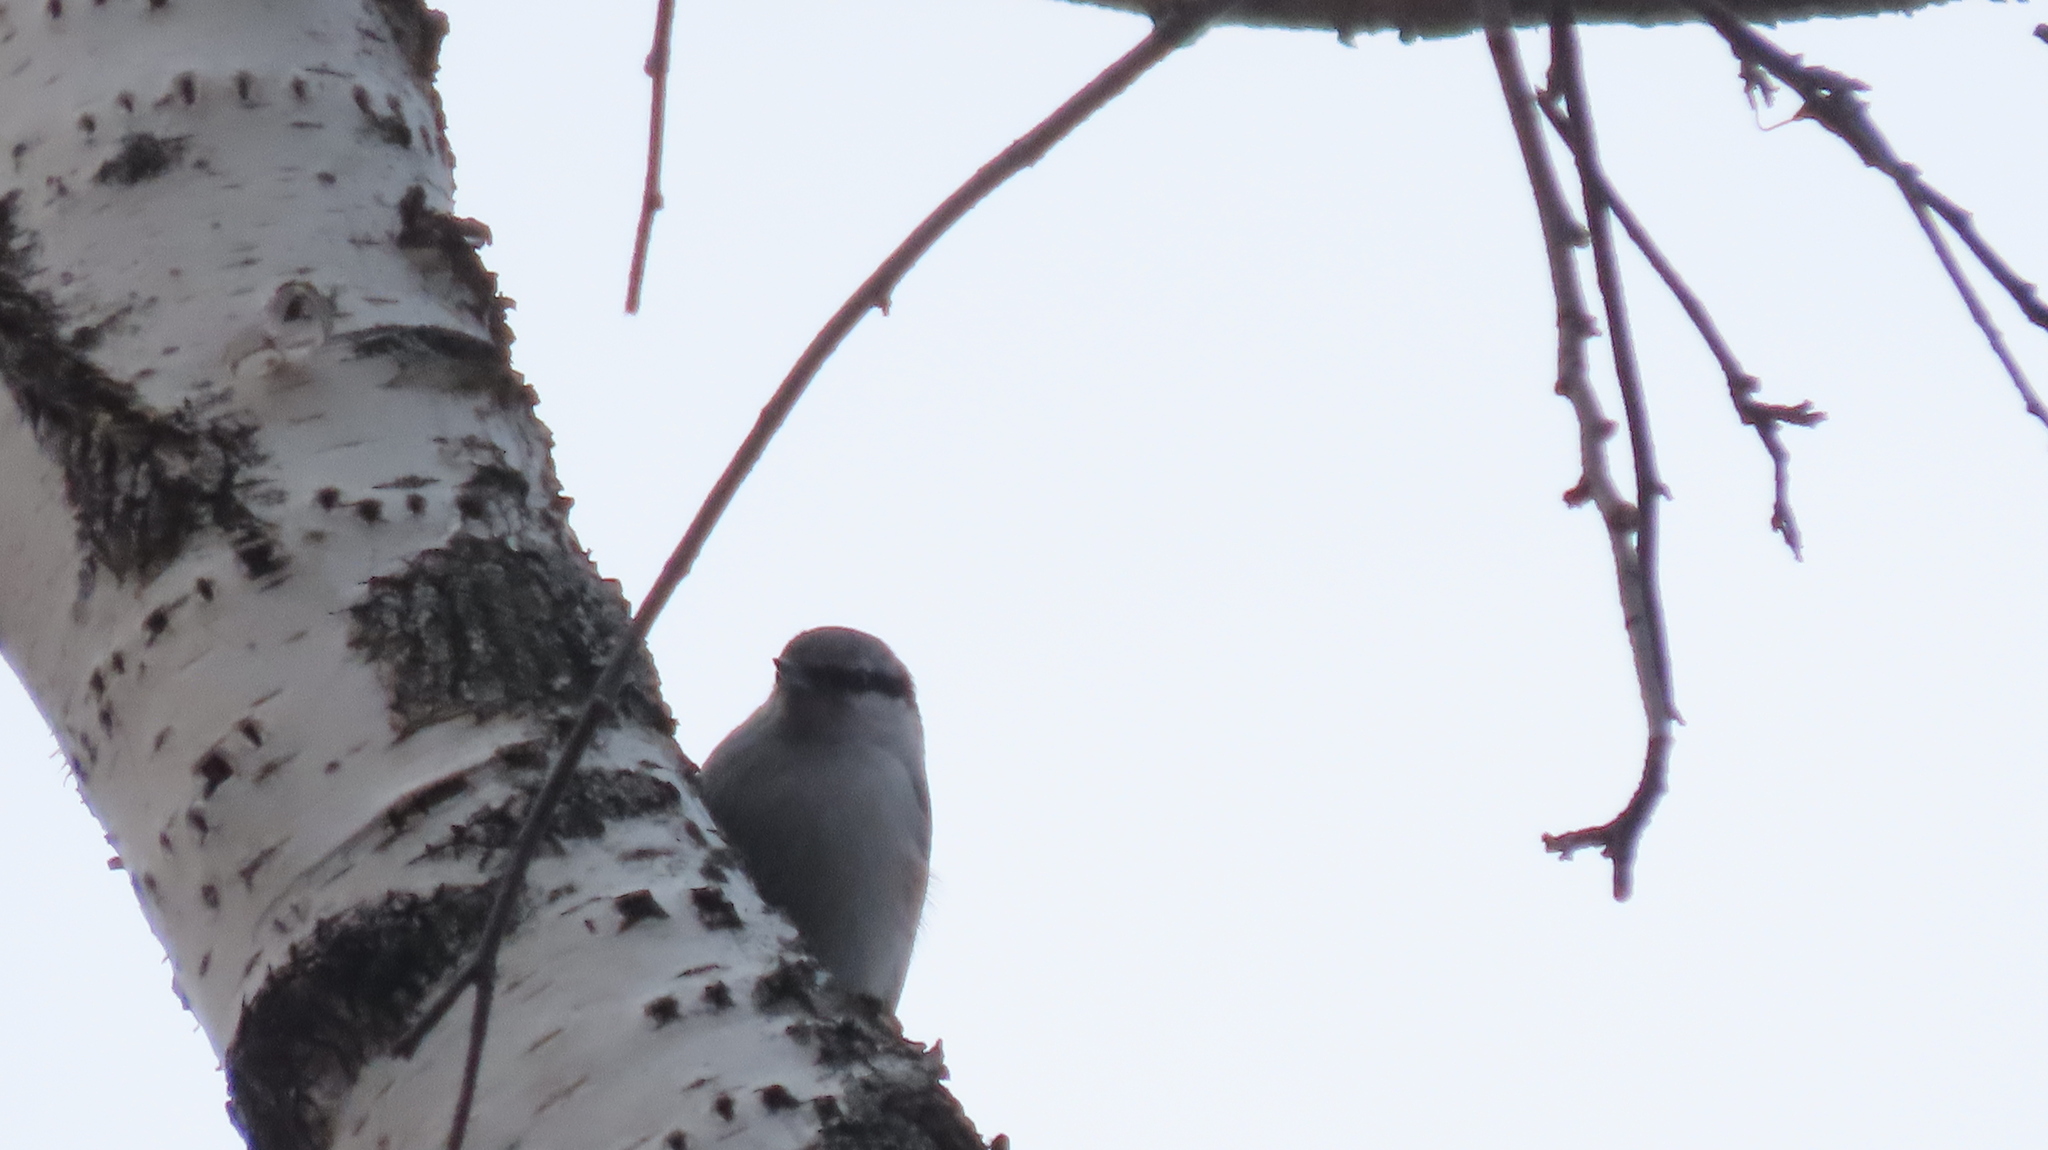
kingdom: Animalia
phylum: Chordata
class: Aves
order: Passeriformes
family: Sittidae
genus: Sitta
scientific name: Sitta europaea
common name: Eurasian nuthatch
